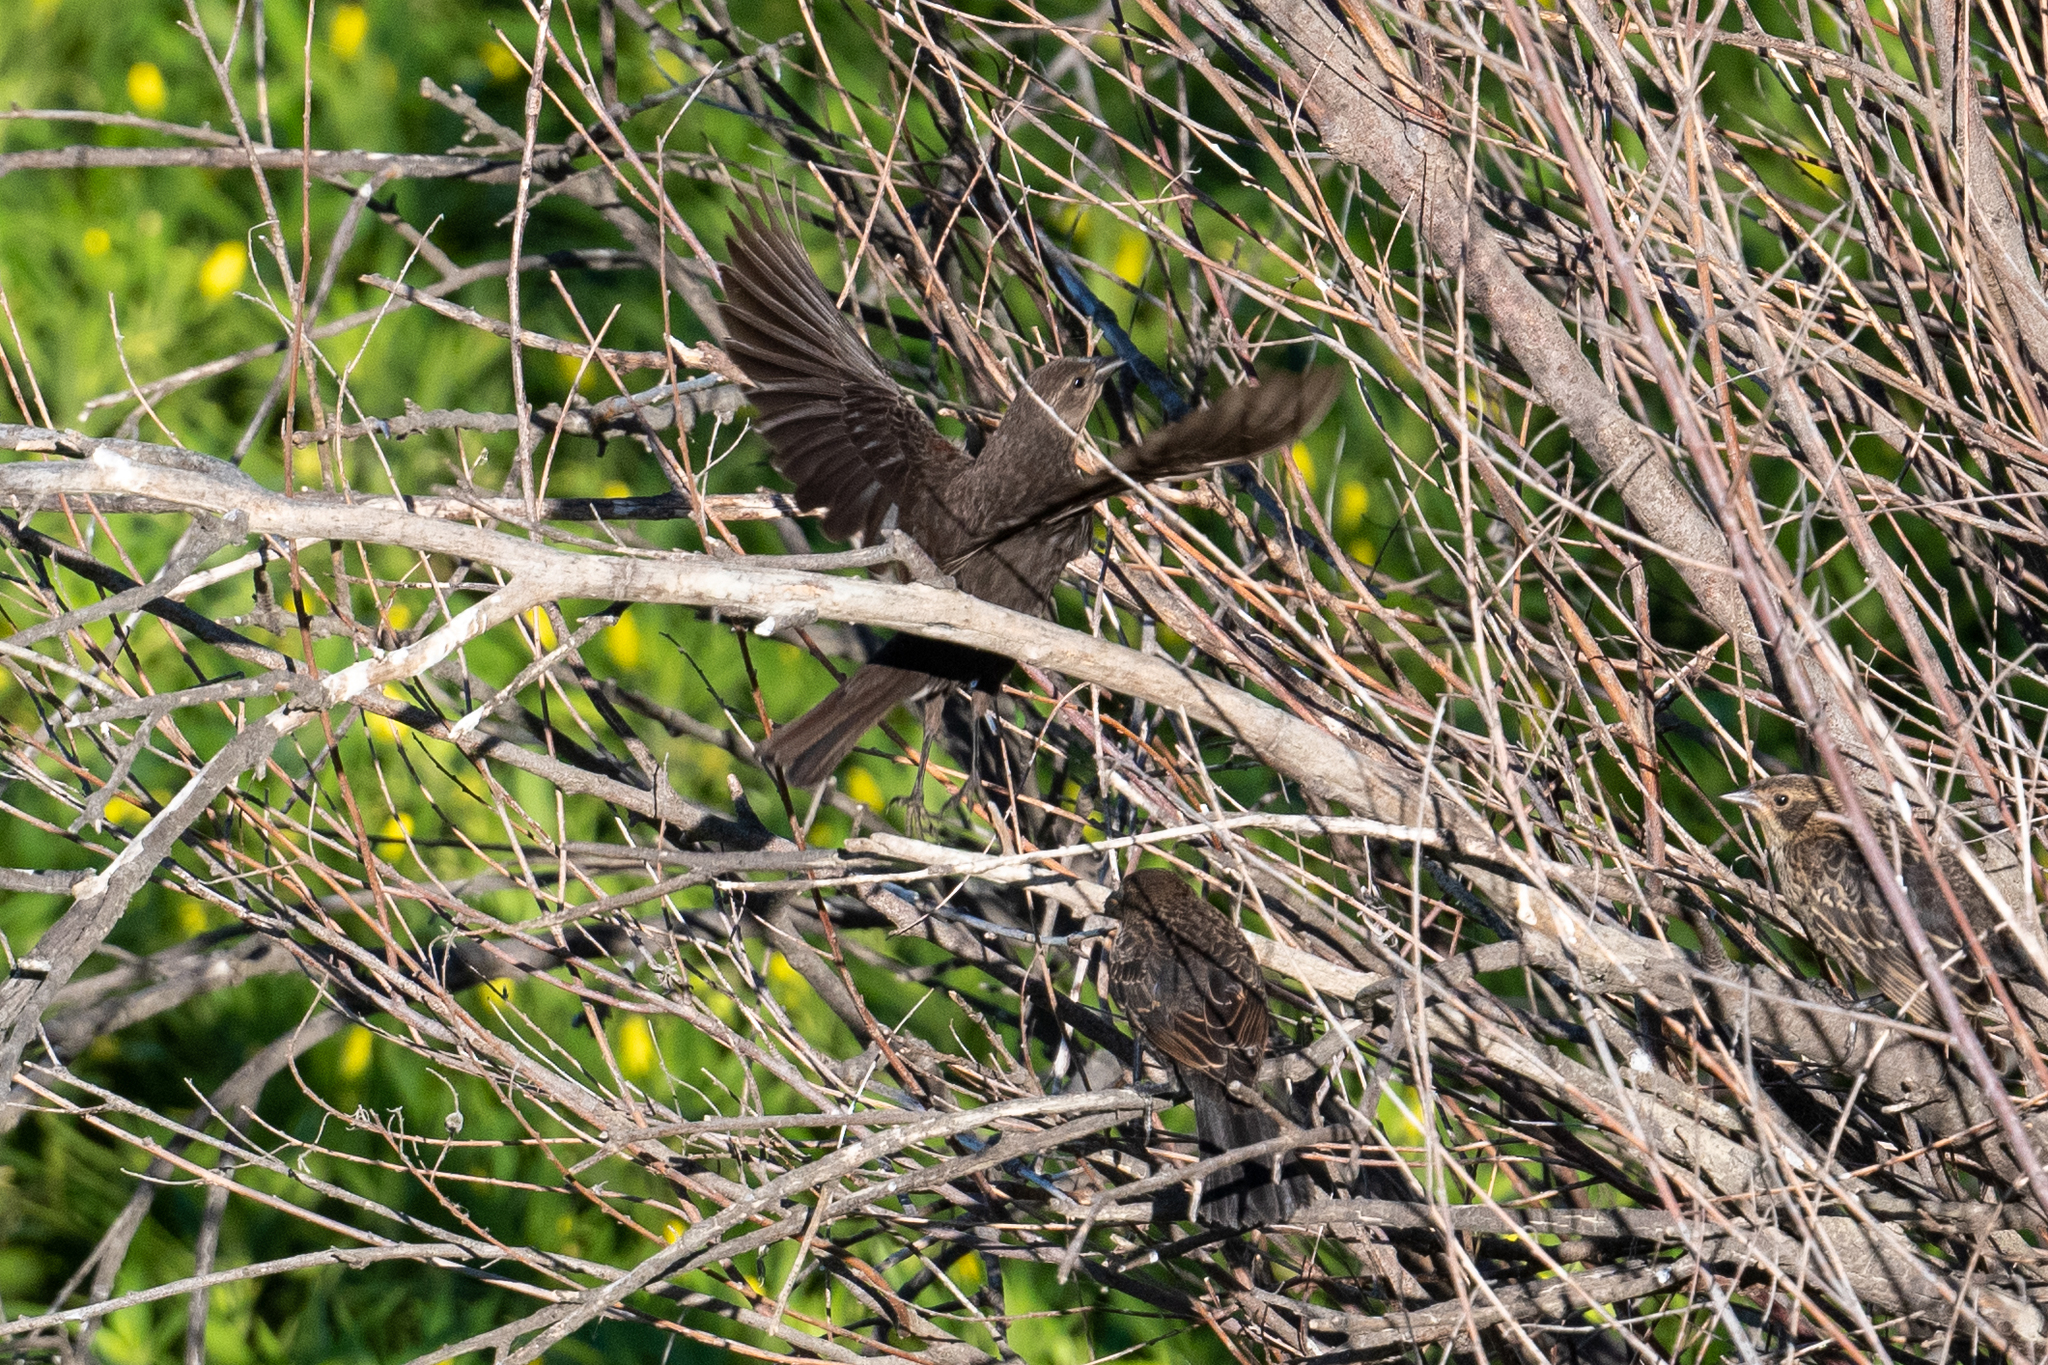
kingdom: Animalia
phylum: Chordata
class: Aves
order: Passeriformes
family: Icteridae
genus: Agelaius
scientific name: Agelaius phoeniceus
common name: Red-winged blackbird
